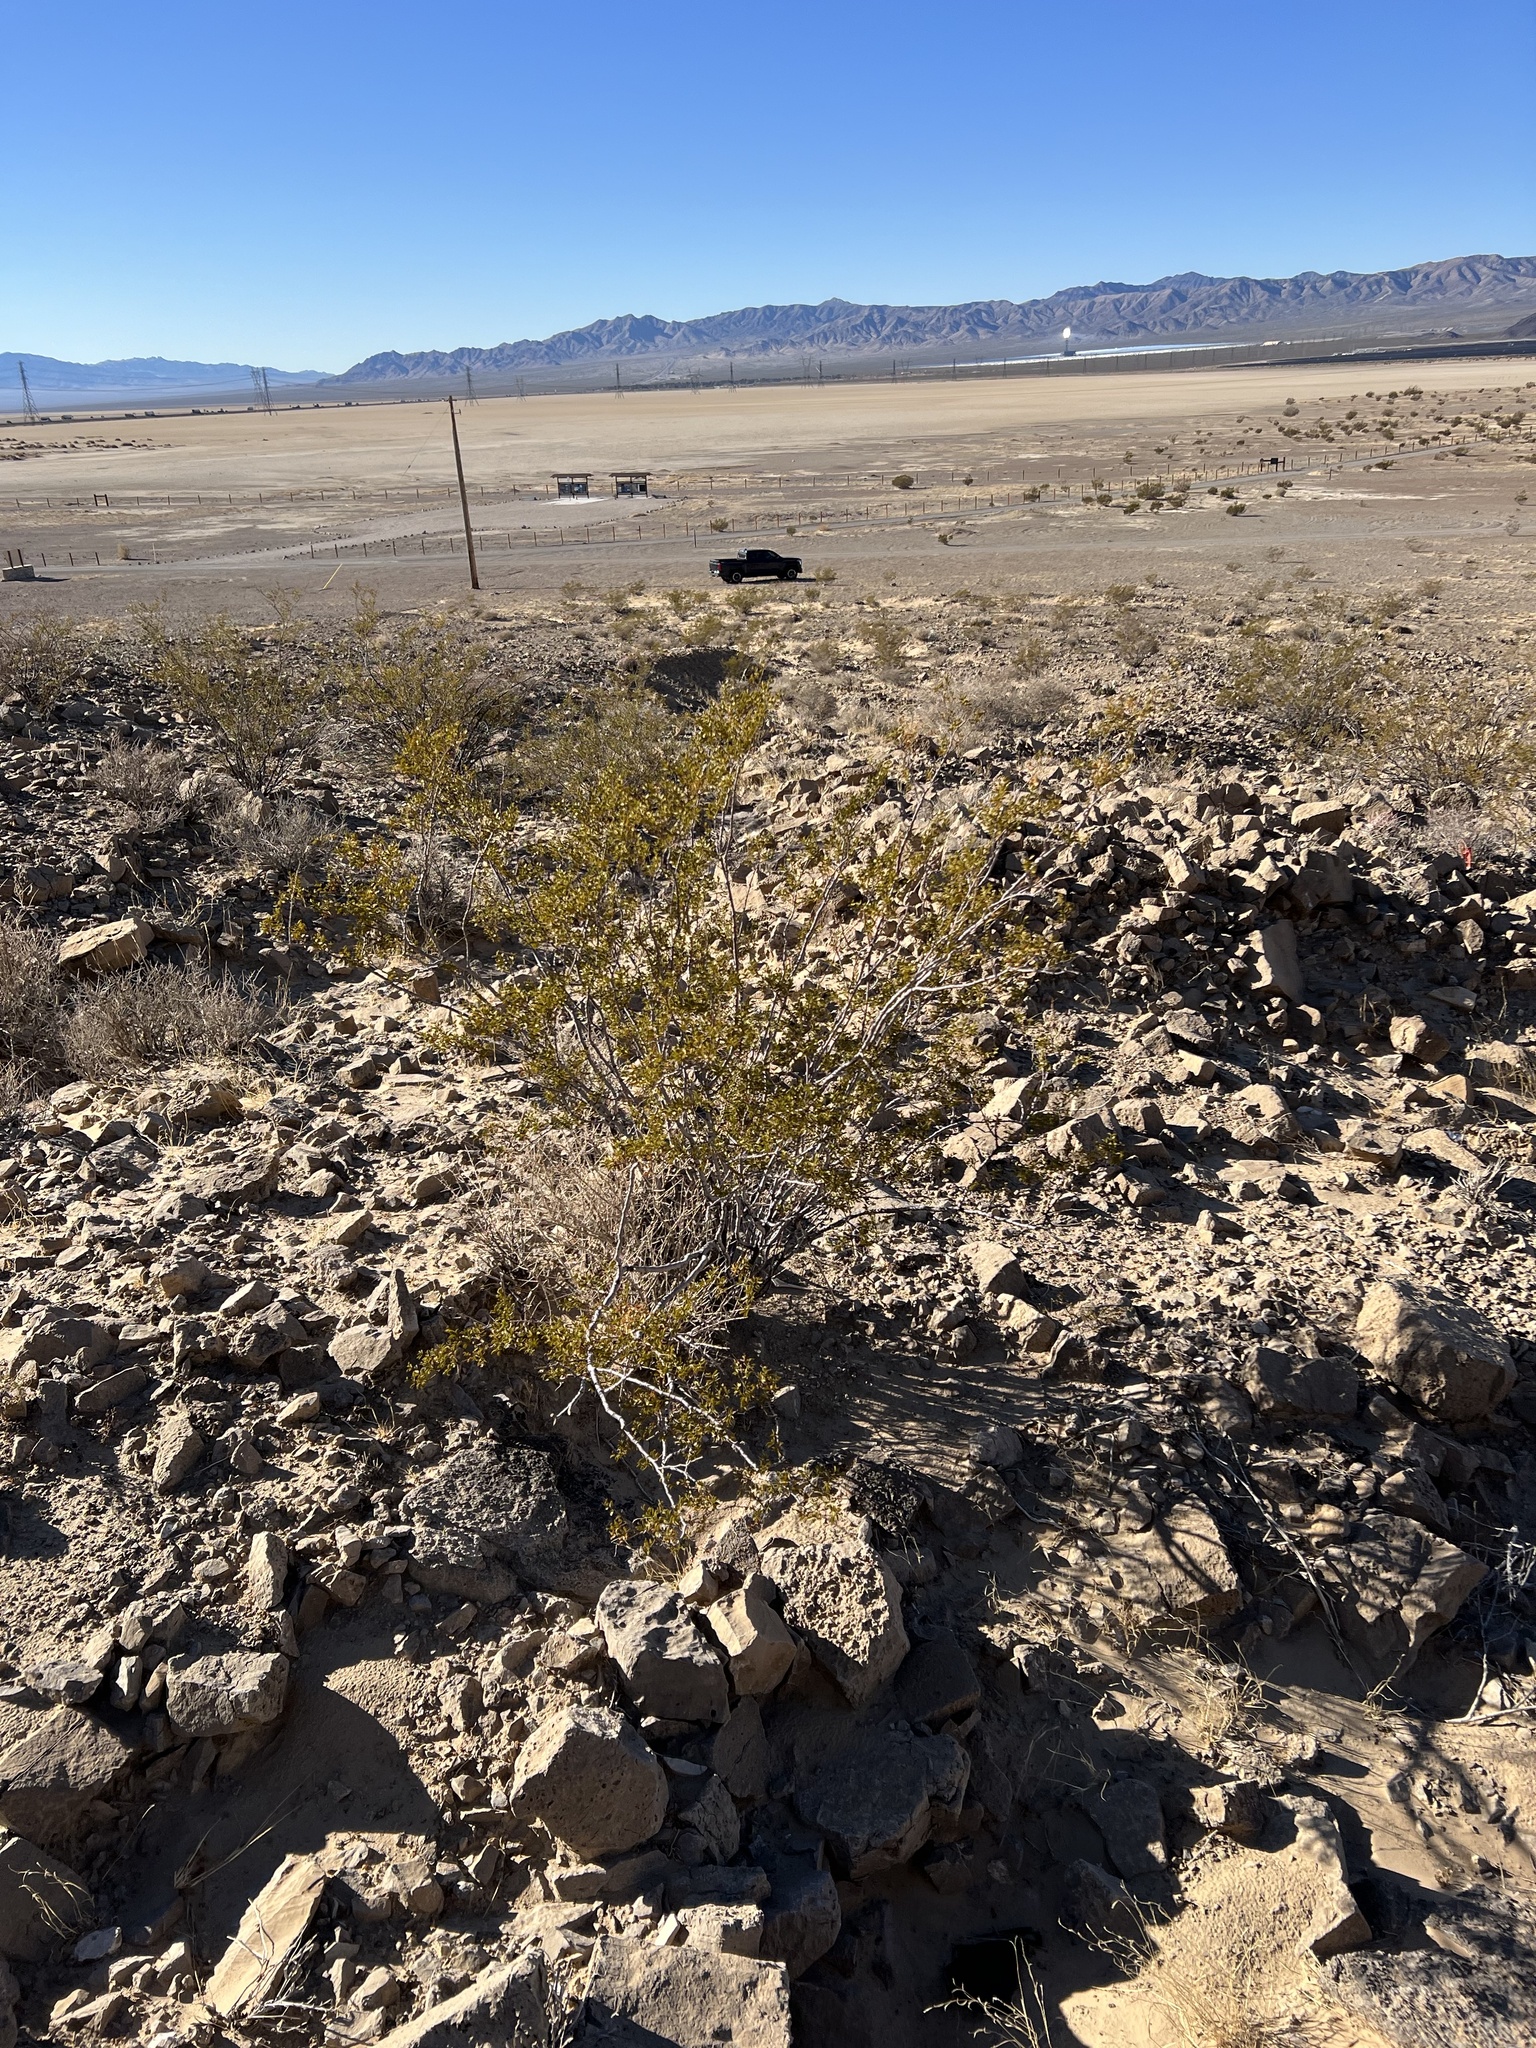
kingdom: Plantae
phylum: Tracheophyta
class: Magnoliopsida
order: Zygophyllales
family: Zygophyllaceae
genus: Larrea
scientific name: Larrea tridentata
